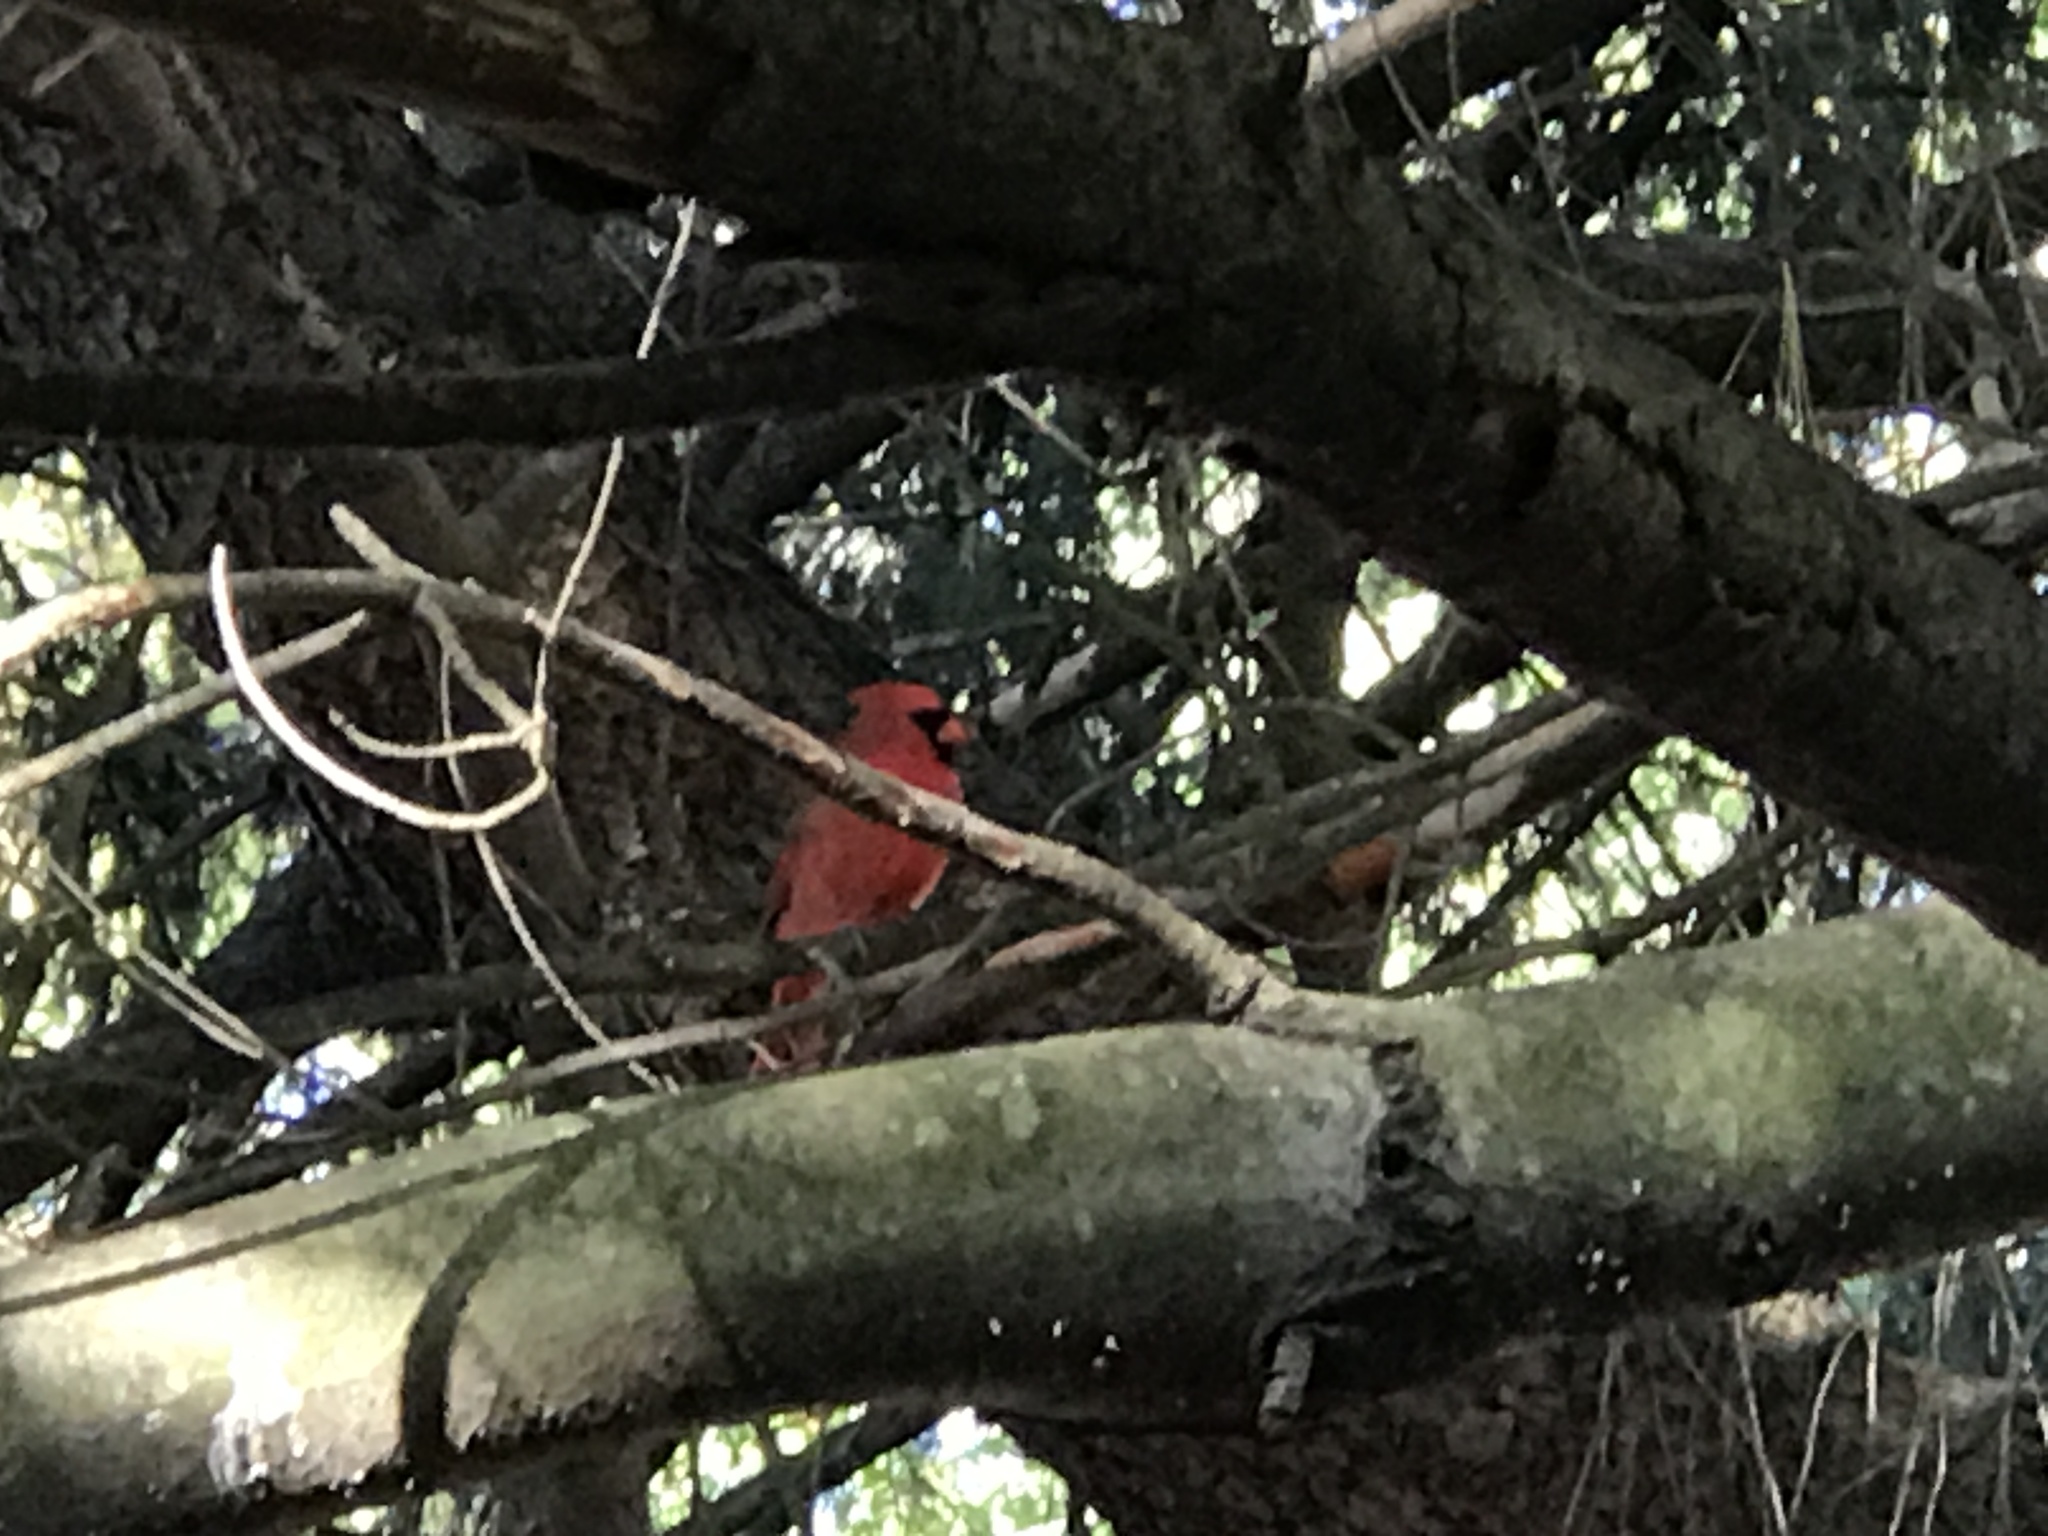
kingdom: Animalia
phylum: Chordata
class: Aves
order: Passeriformes
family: Cardinalidae
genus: Cardinalis
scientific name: Cardinalis cardinalis
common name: Northern cardinal
